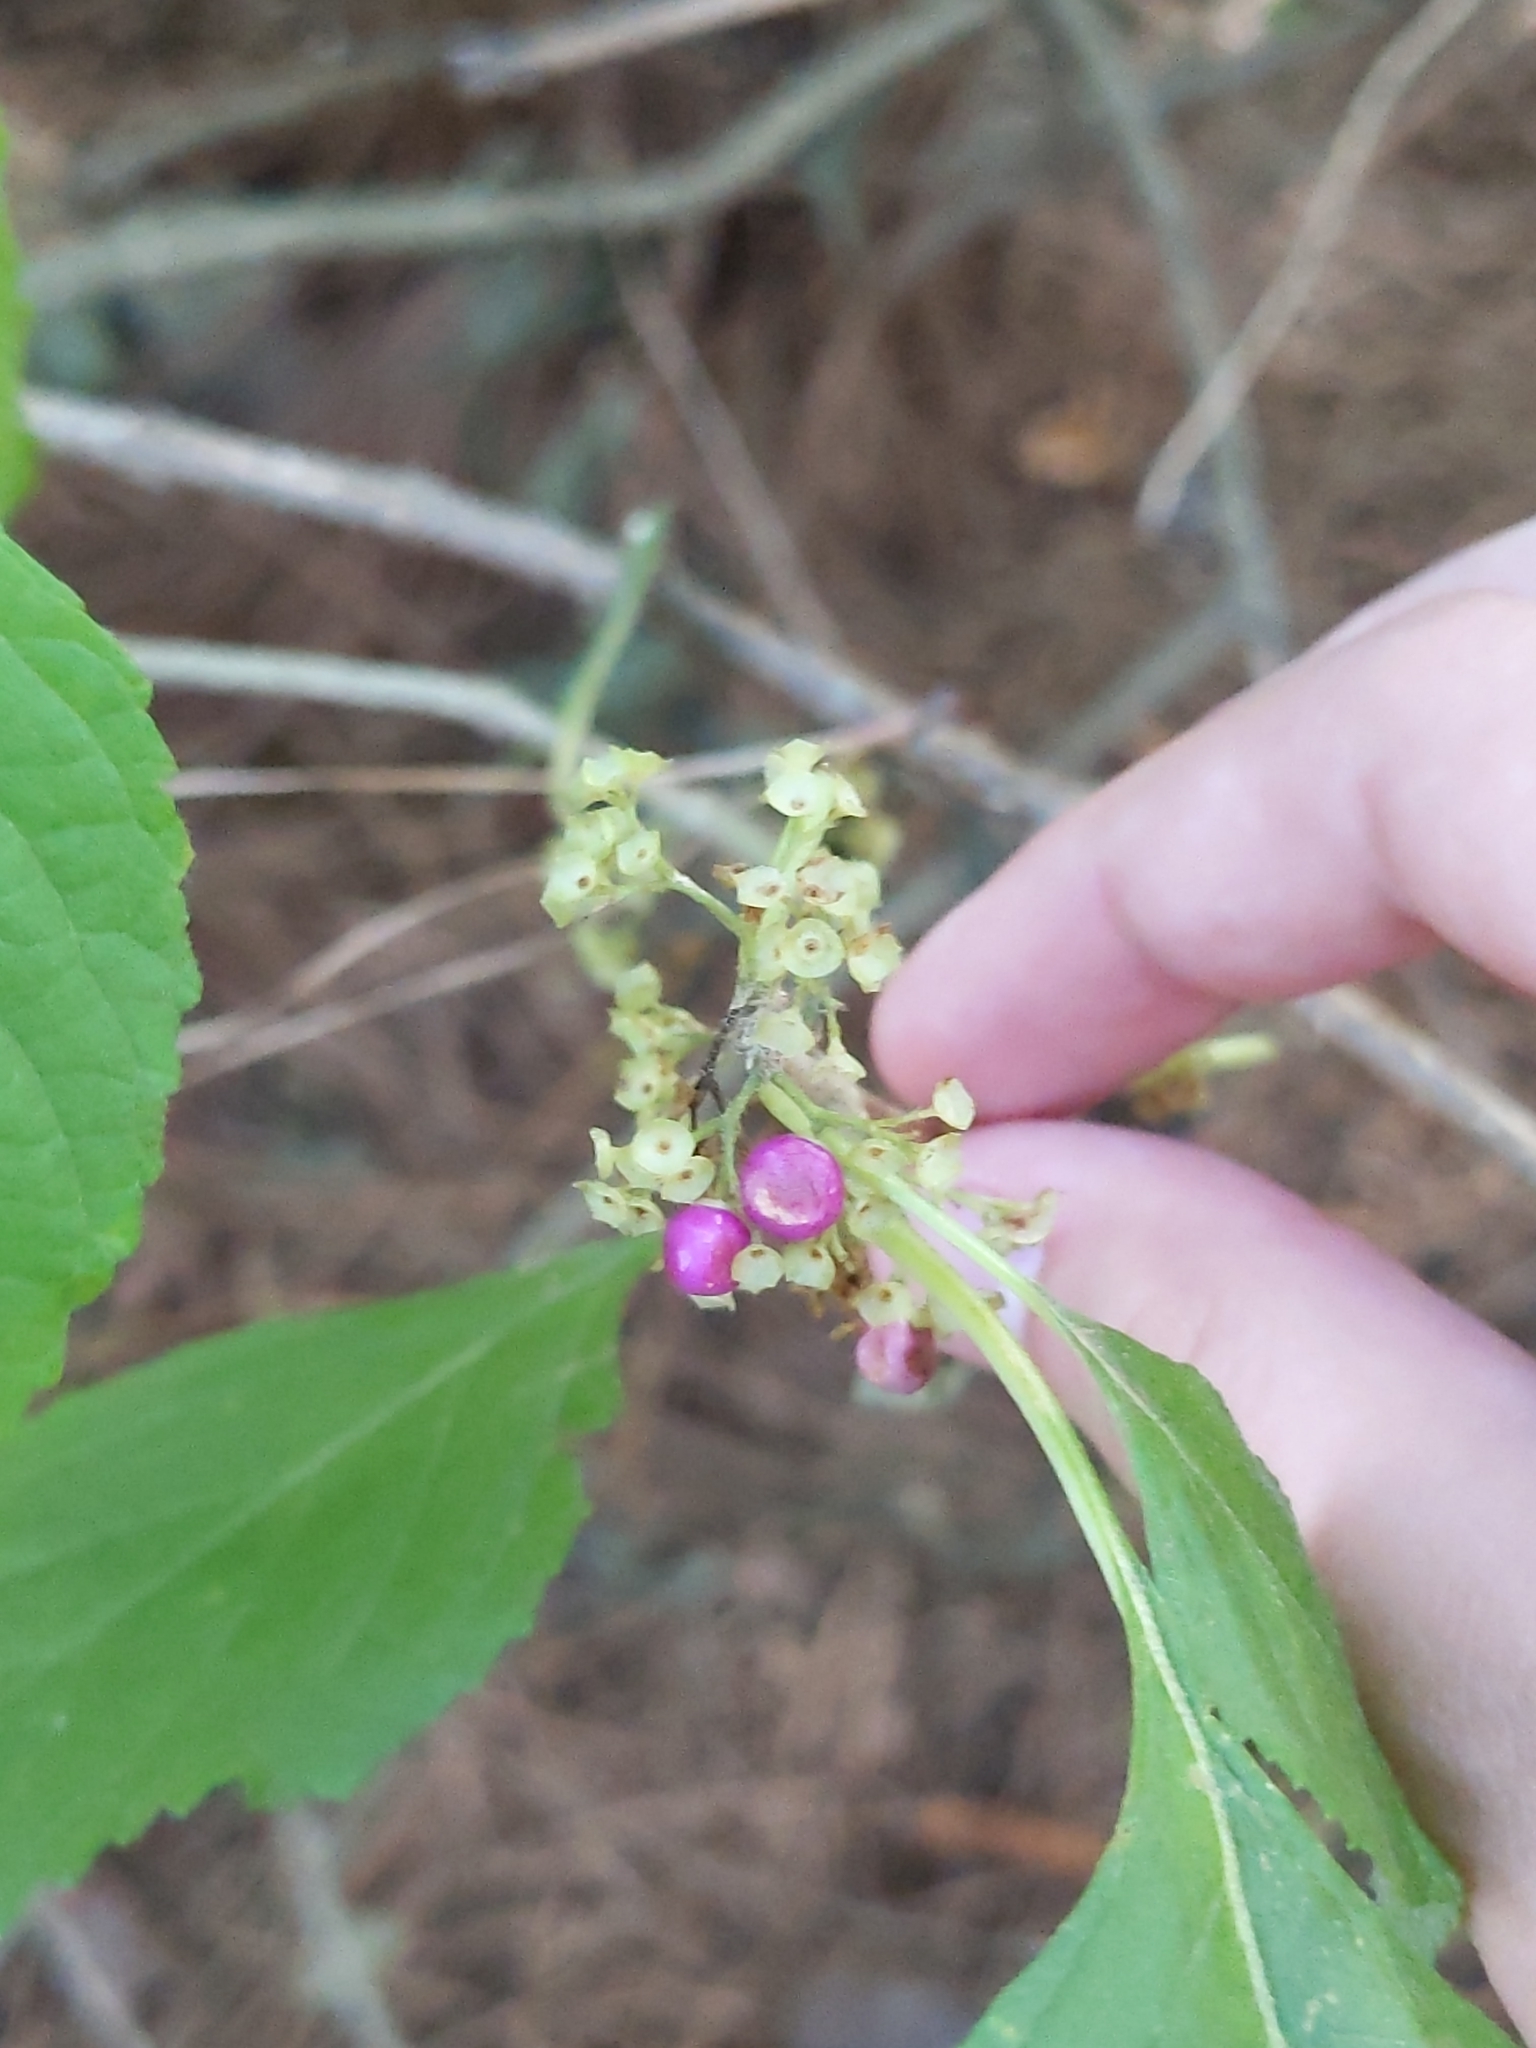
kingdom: Plantae
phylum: Tracheophyta
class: Magnoliopsida
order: Lamiales
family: Lamiaceae
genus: Callicarpa
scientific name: Callicarpa americana
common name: American beautyberry
